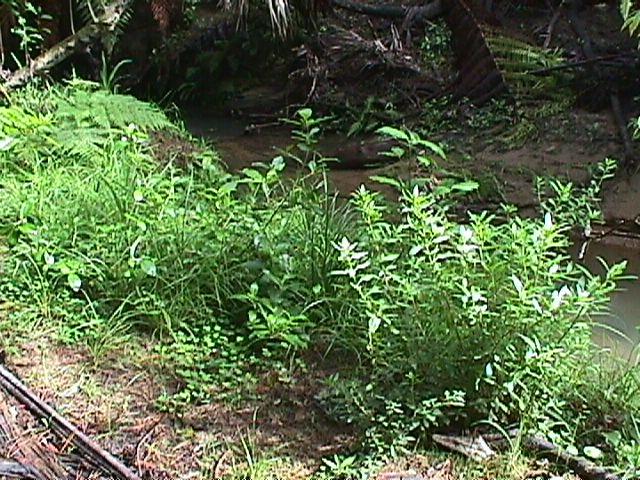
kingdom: Plantae
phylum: Tracheophyta
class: Magnoliopsida
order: Saxifragales
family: Haloragaceae
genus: Haloragis
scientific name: Haloragis erecta
